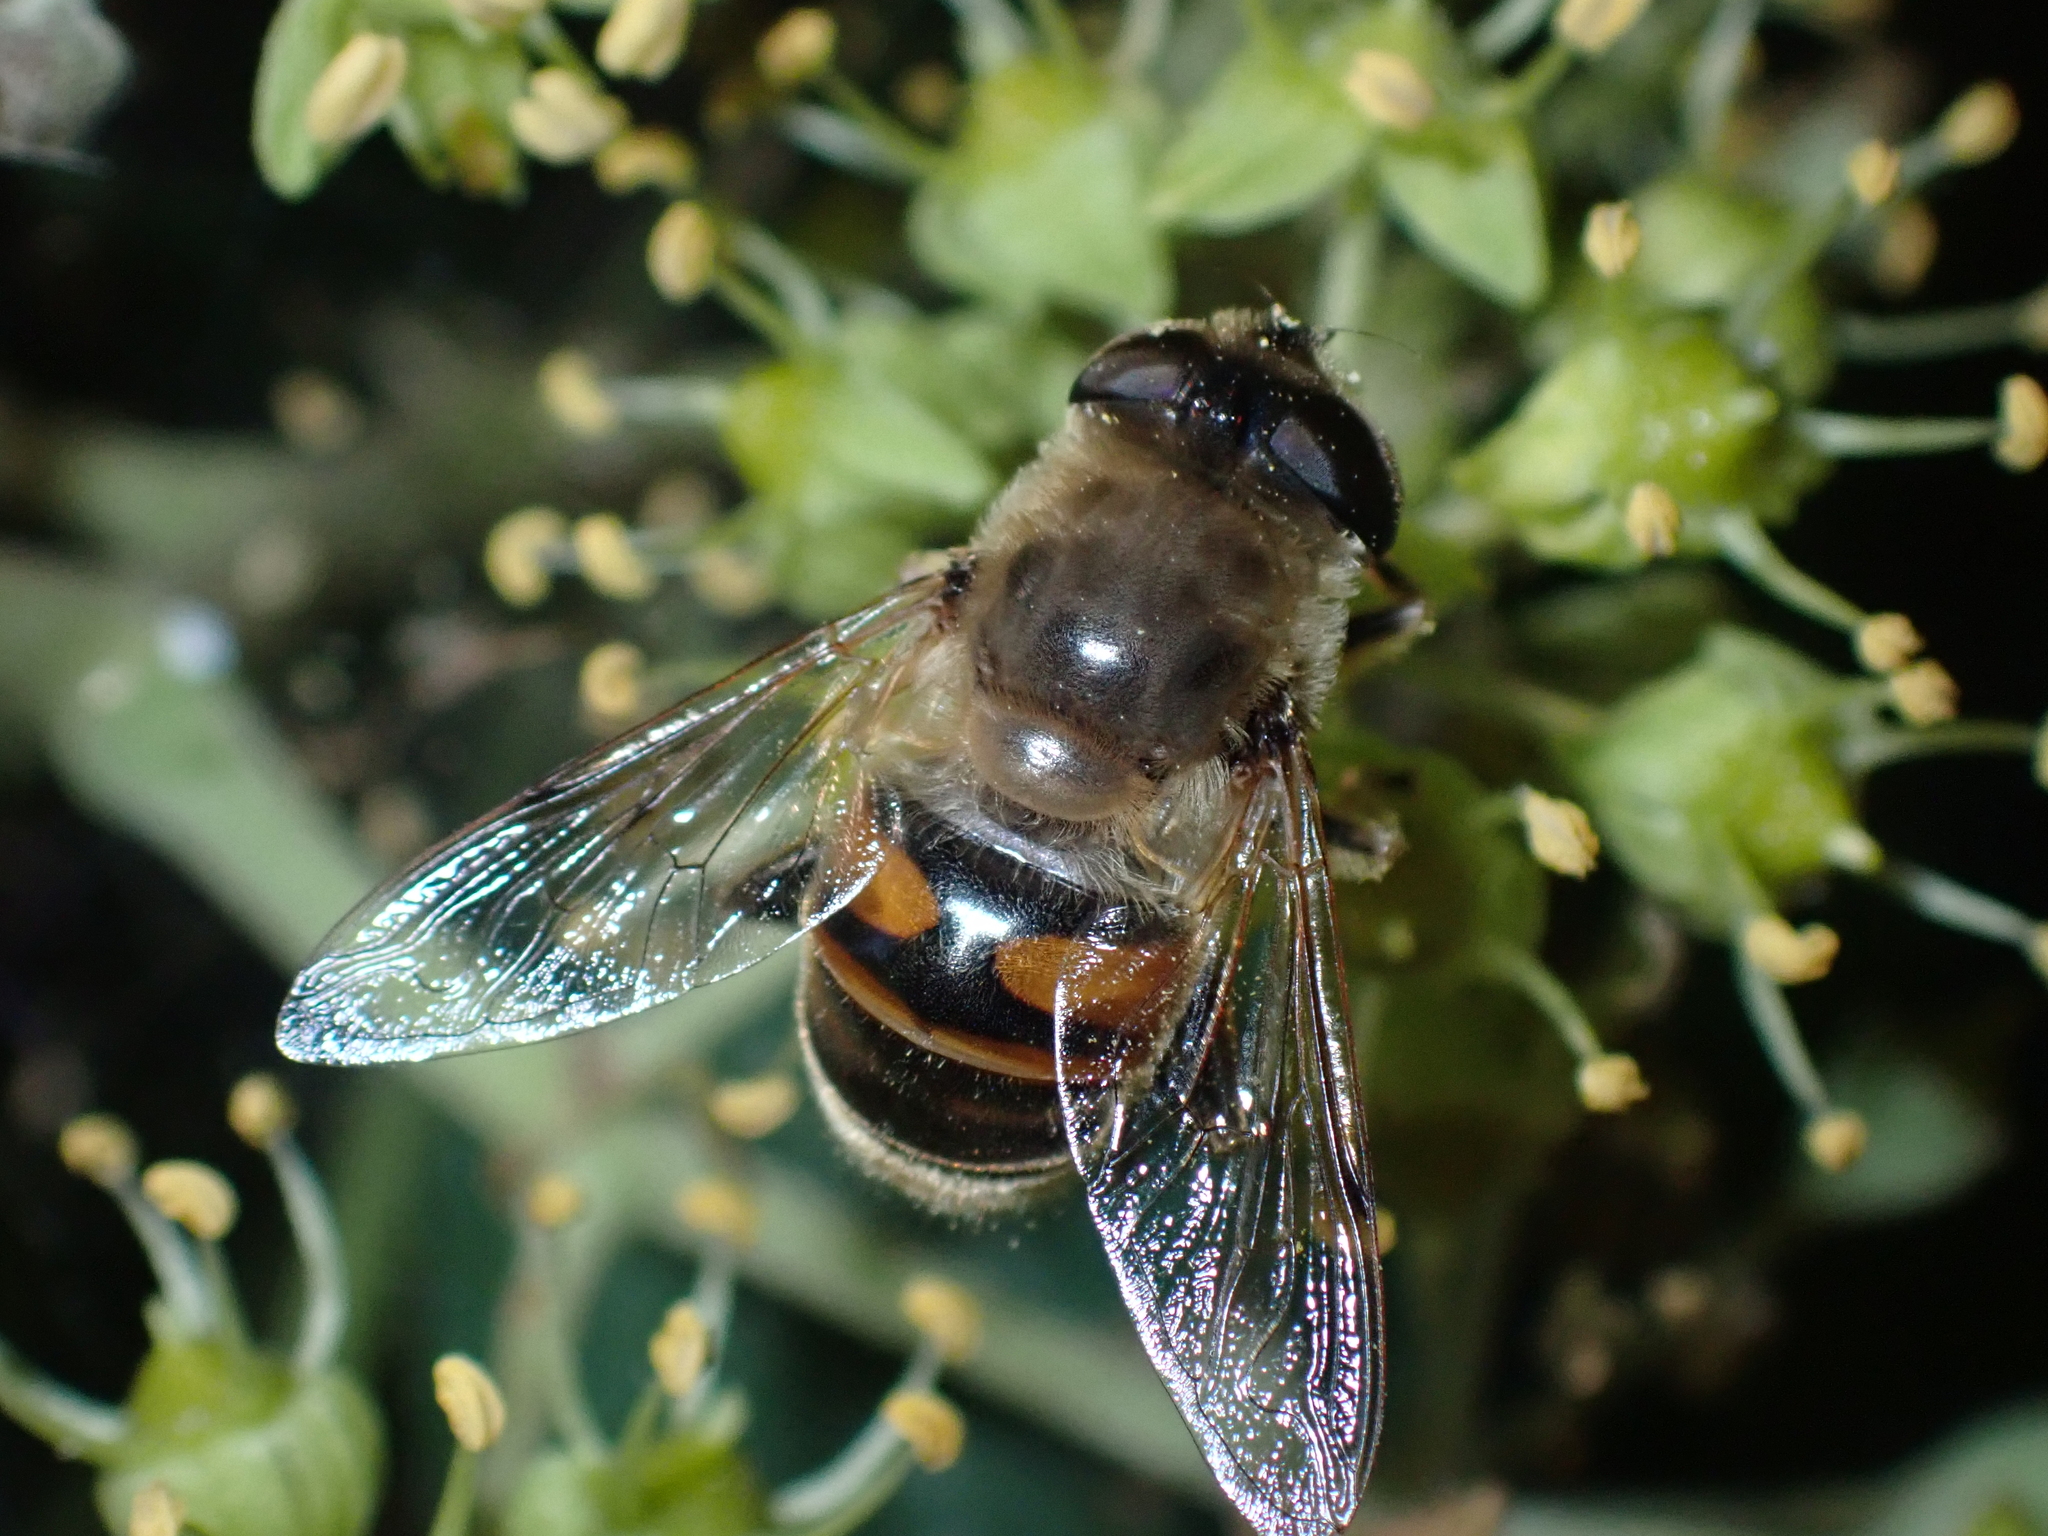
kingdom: Animalia
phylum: Arthropoda
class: Insecta
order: Diptera
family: Syrphidae
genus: Eristalis
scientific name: Eristalis tenax
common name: Drone fly
